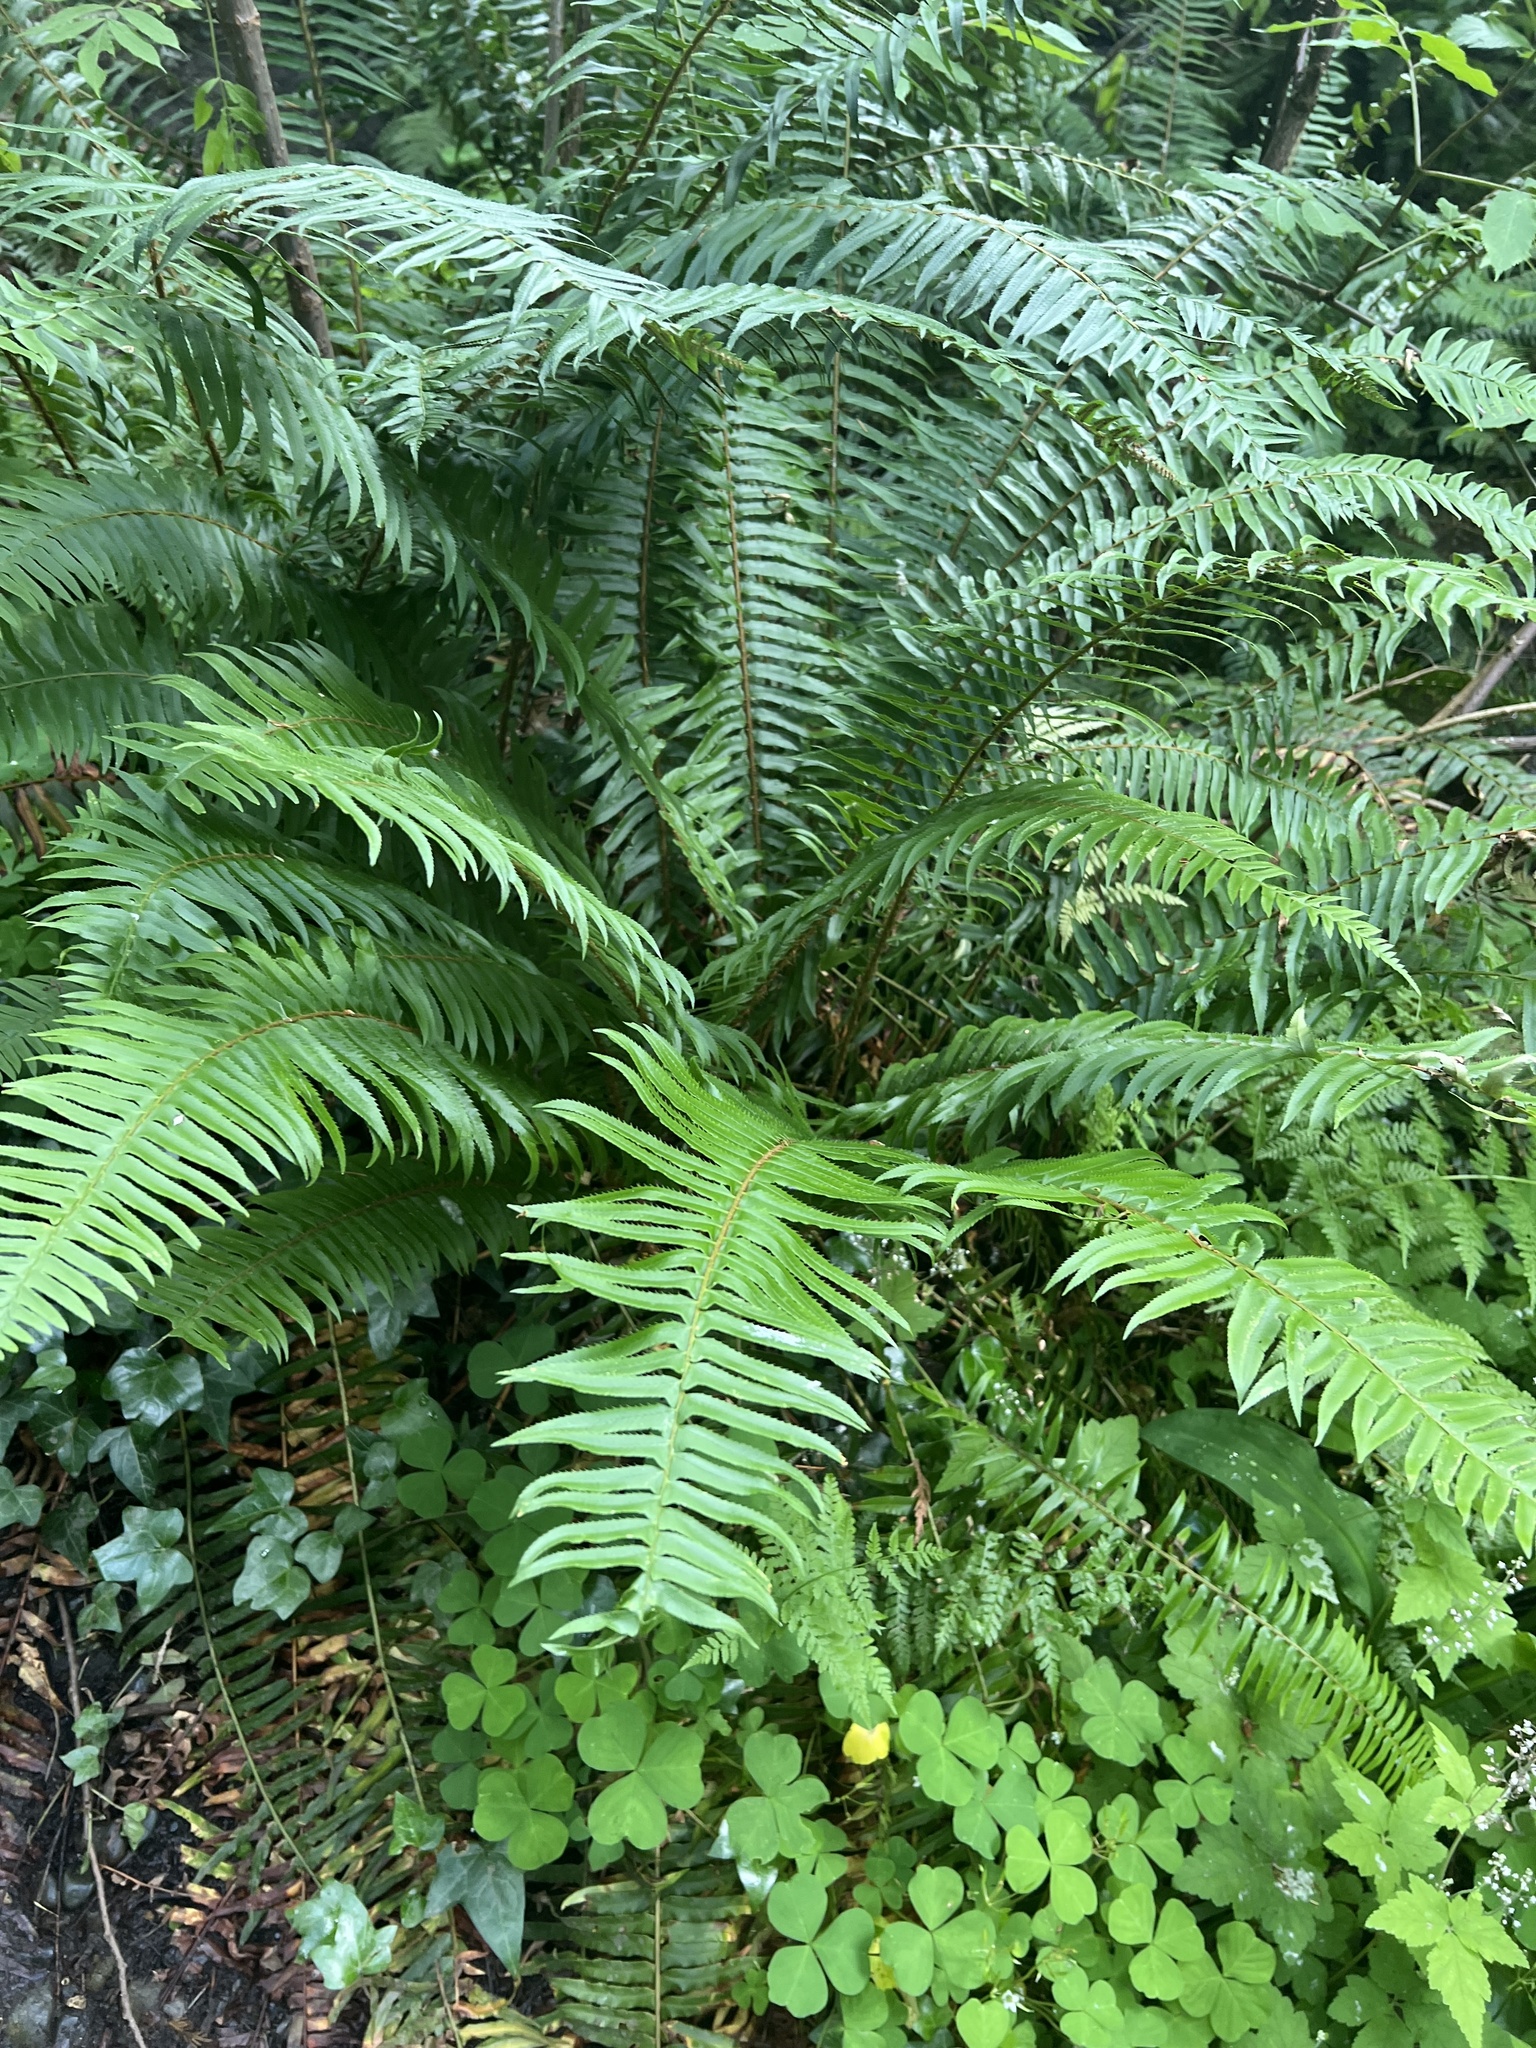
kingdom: Plantae
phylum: Tracheophyta
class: Polypodiopsida
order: Polypodiales
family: Dryopteridaceae
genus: Polystichum
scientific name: Polystichum munitum
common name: Western sword-fern
